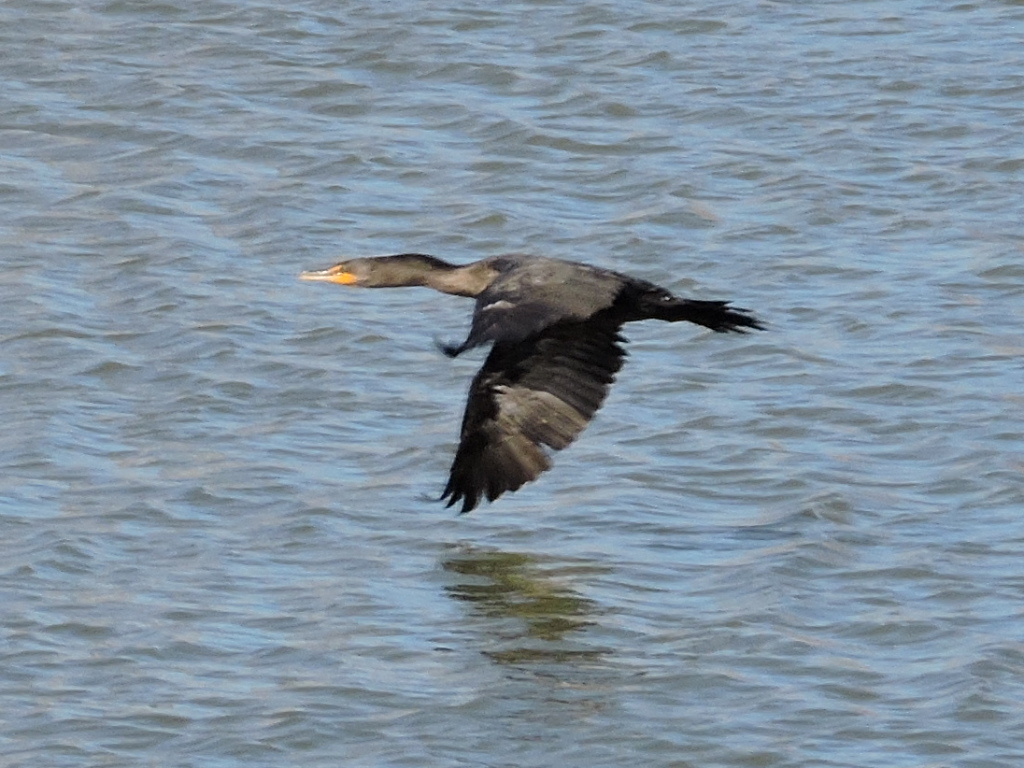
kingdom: Animalia
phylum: Chordata
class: Aves
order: Suliformes
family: Phalacrocoracidae
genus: Phalacrocorax
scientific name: Phalacrocorax auritus
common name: Double-crested cormorant
